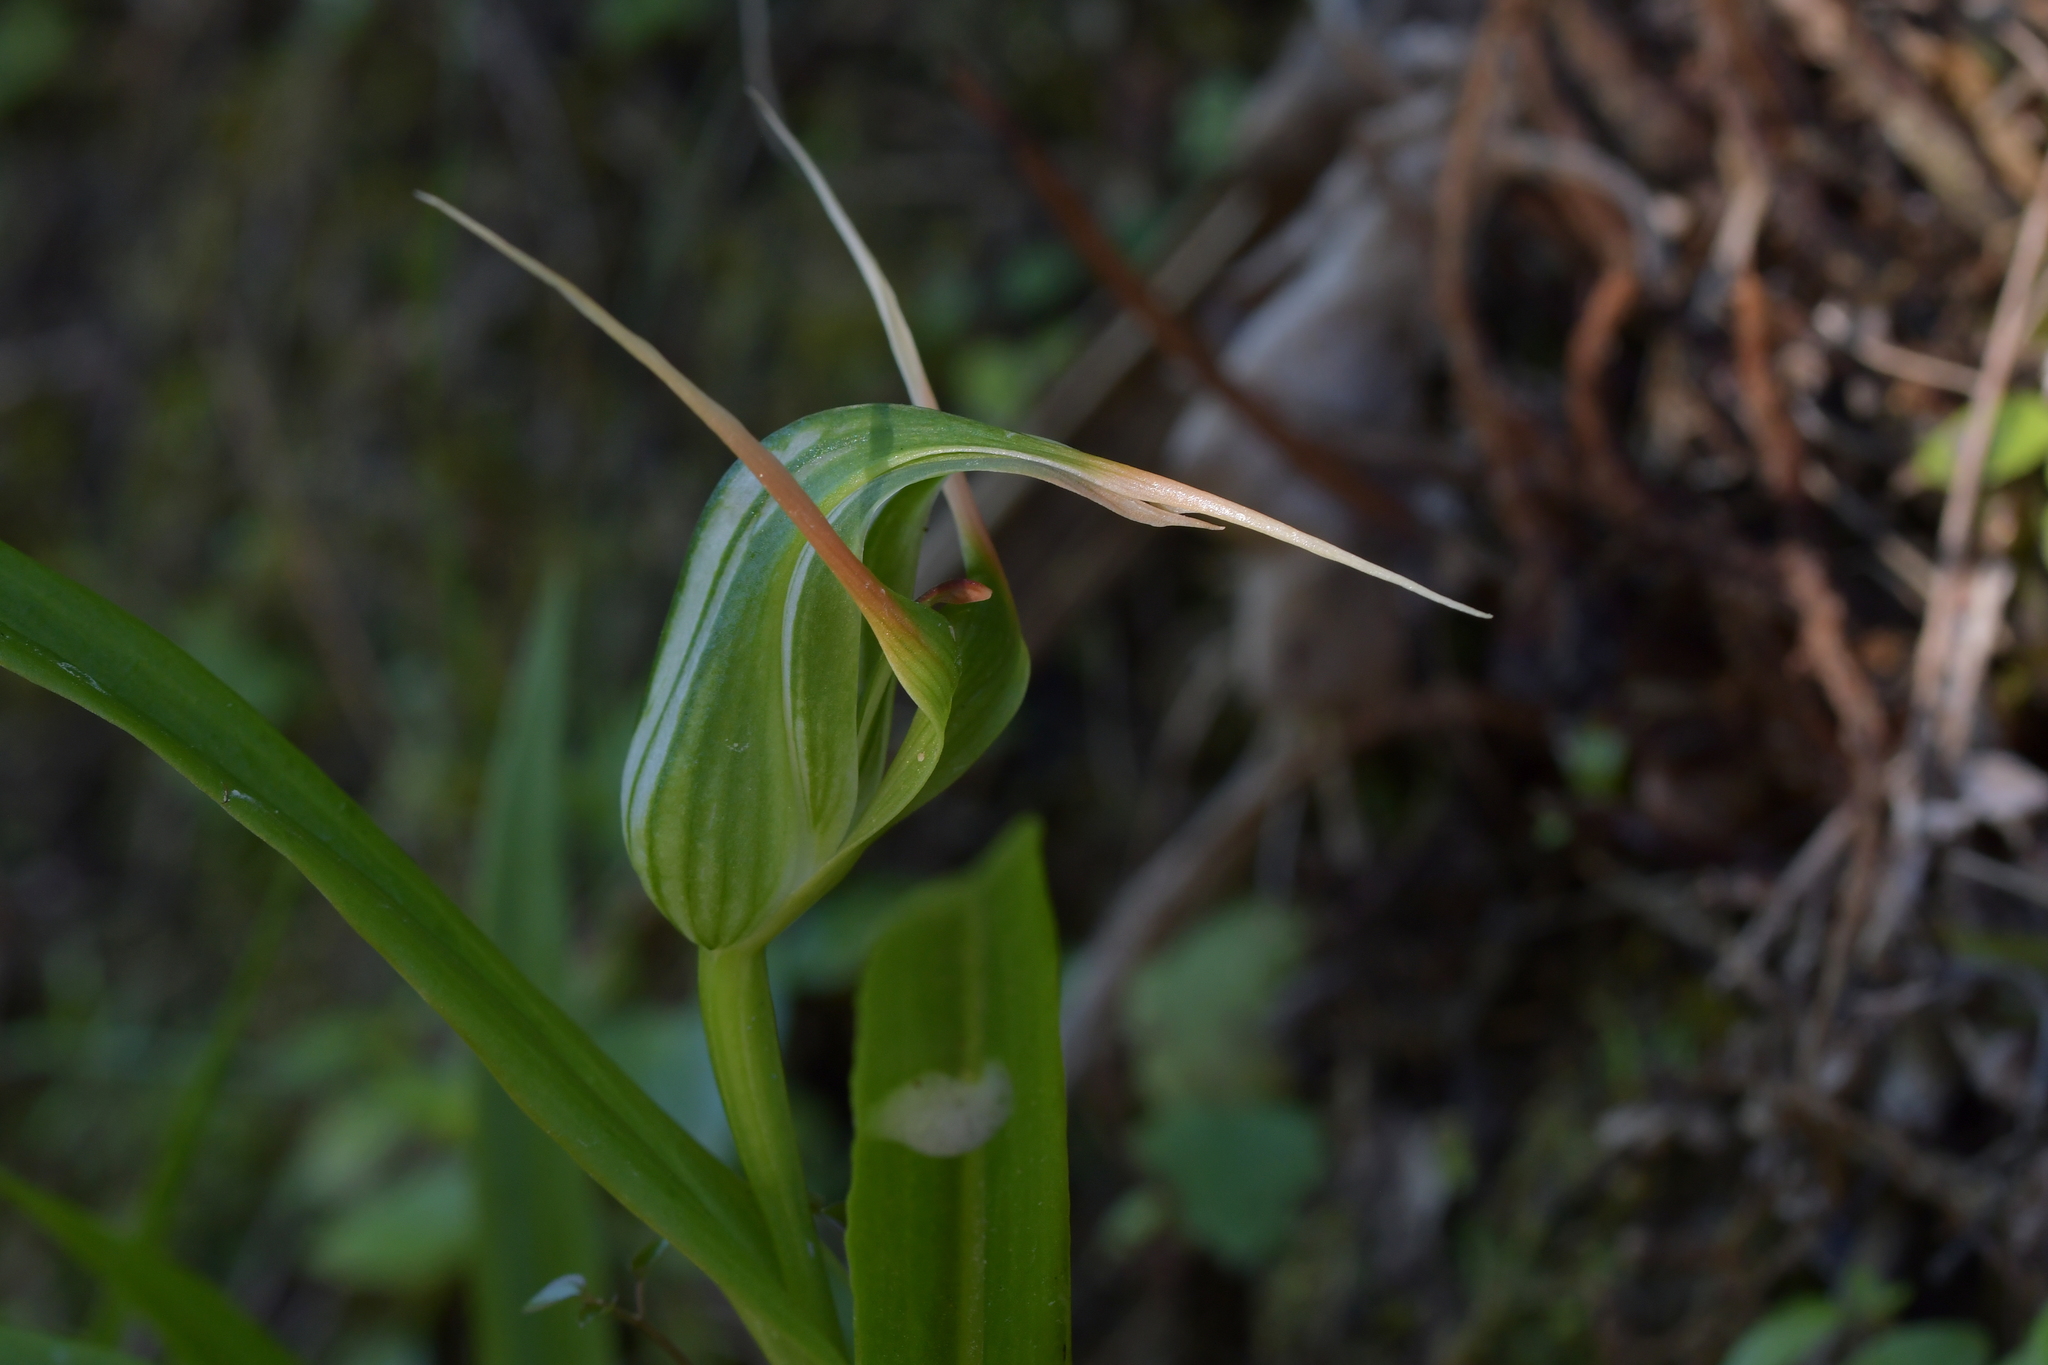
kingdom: Plantae
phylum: Tracheophyta
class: Liliopsida
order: Asparagales
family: Orchidaceae
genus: Pterostylis
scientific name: Pterostylis banksii
